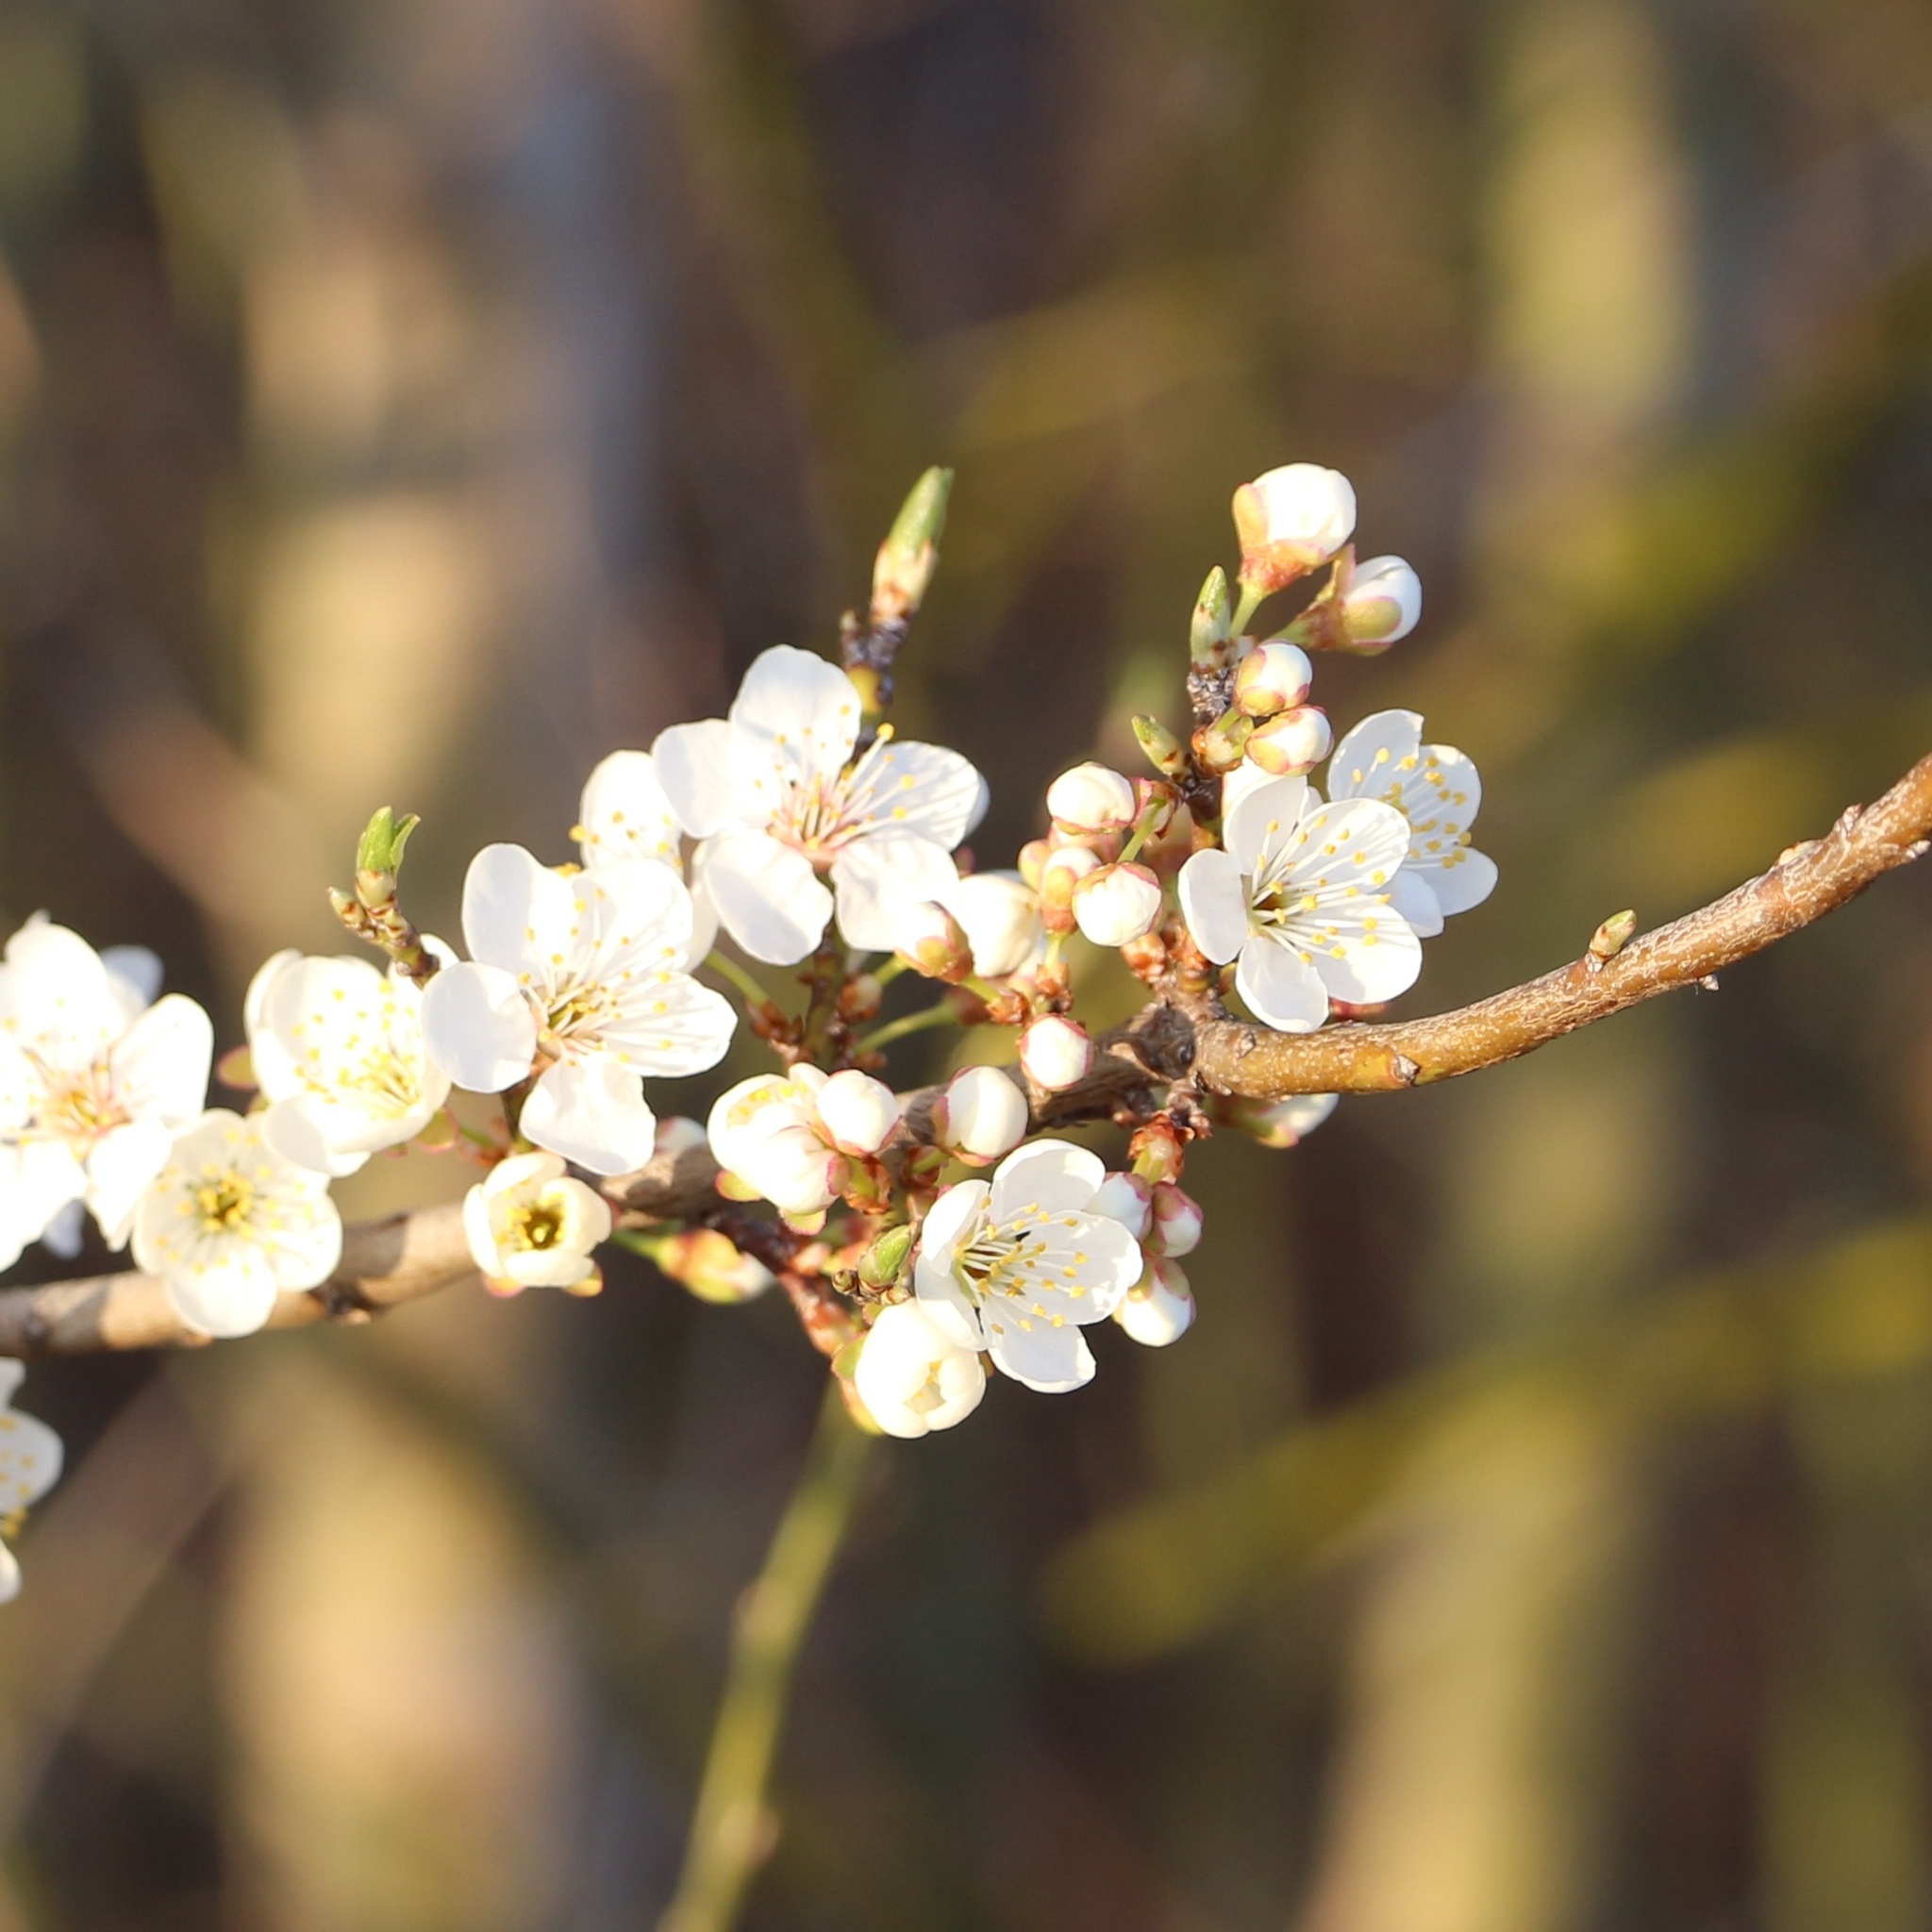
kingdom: Plantae
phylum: Tracheophyta
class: Magnoliopsida
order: Rosales
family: Rosaceae
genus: Prunus
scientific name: Prunus spinosa
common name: Blackthorn
